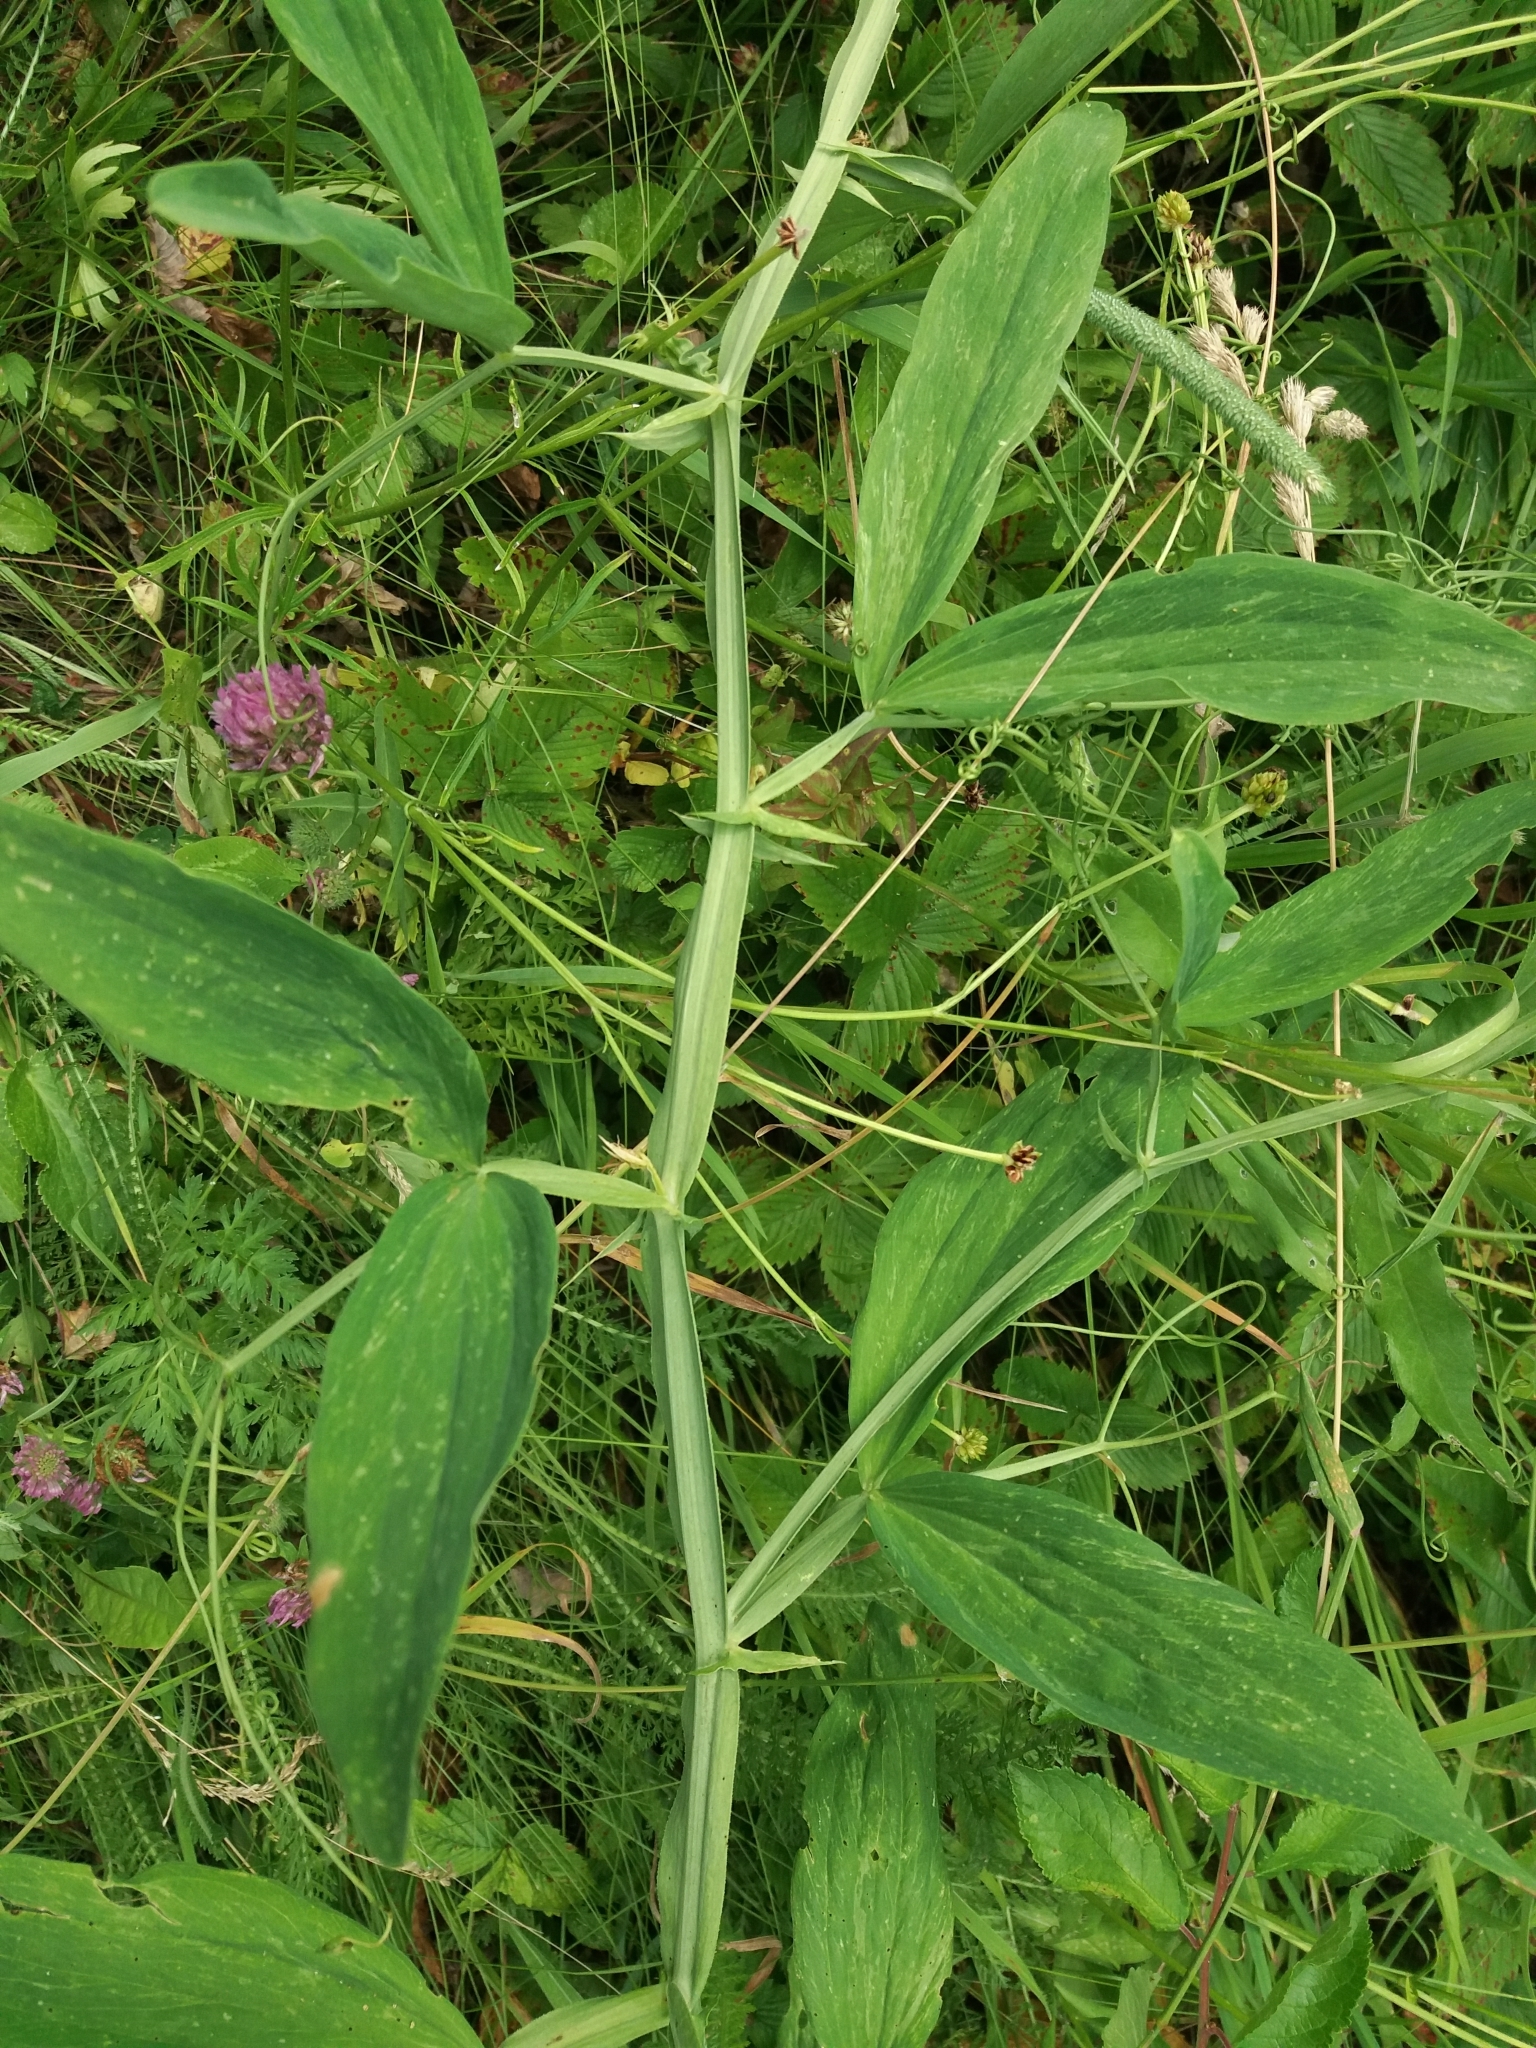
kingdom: Plantae
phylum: Tracheophyta
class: Magnoliopsida
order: Fabales
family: Fabaceae
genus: Lathyrus
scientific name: Lathyrus sylvestris
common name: Flat pea
